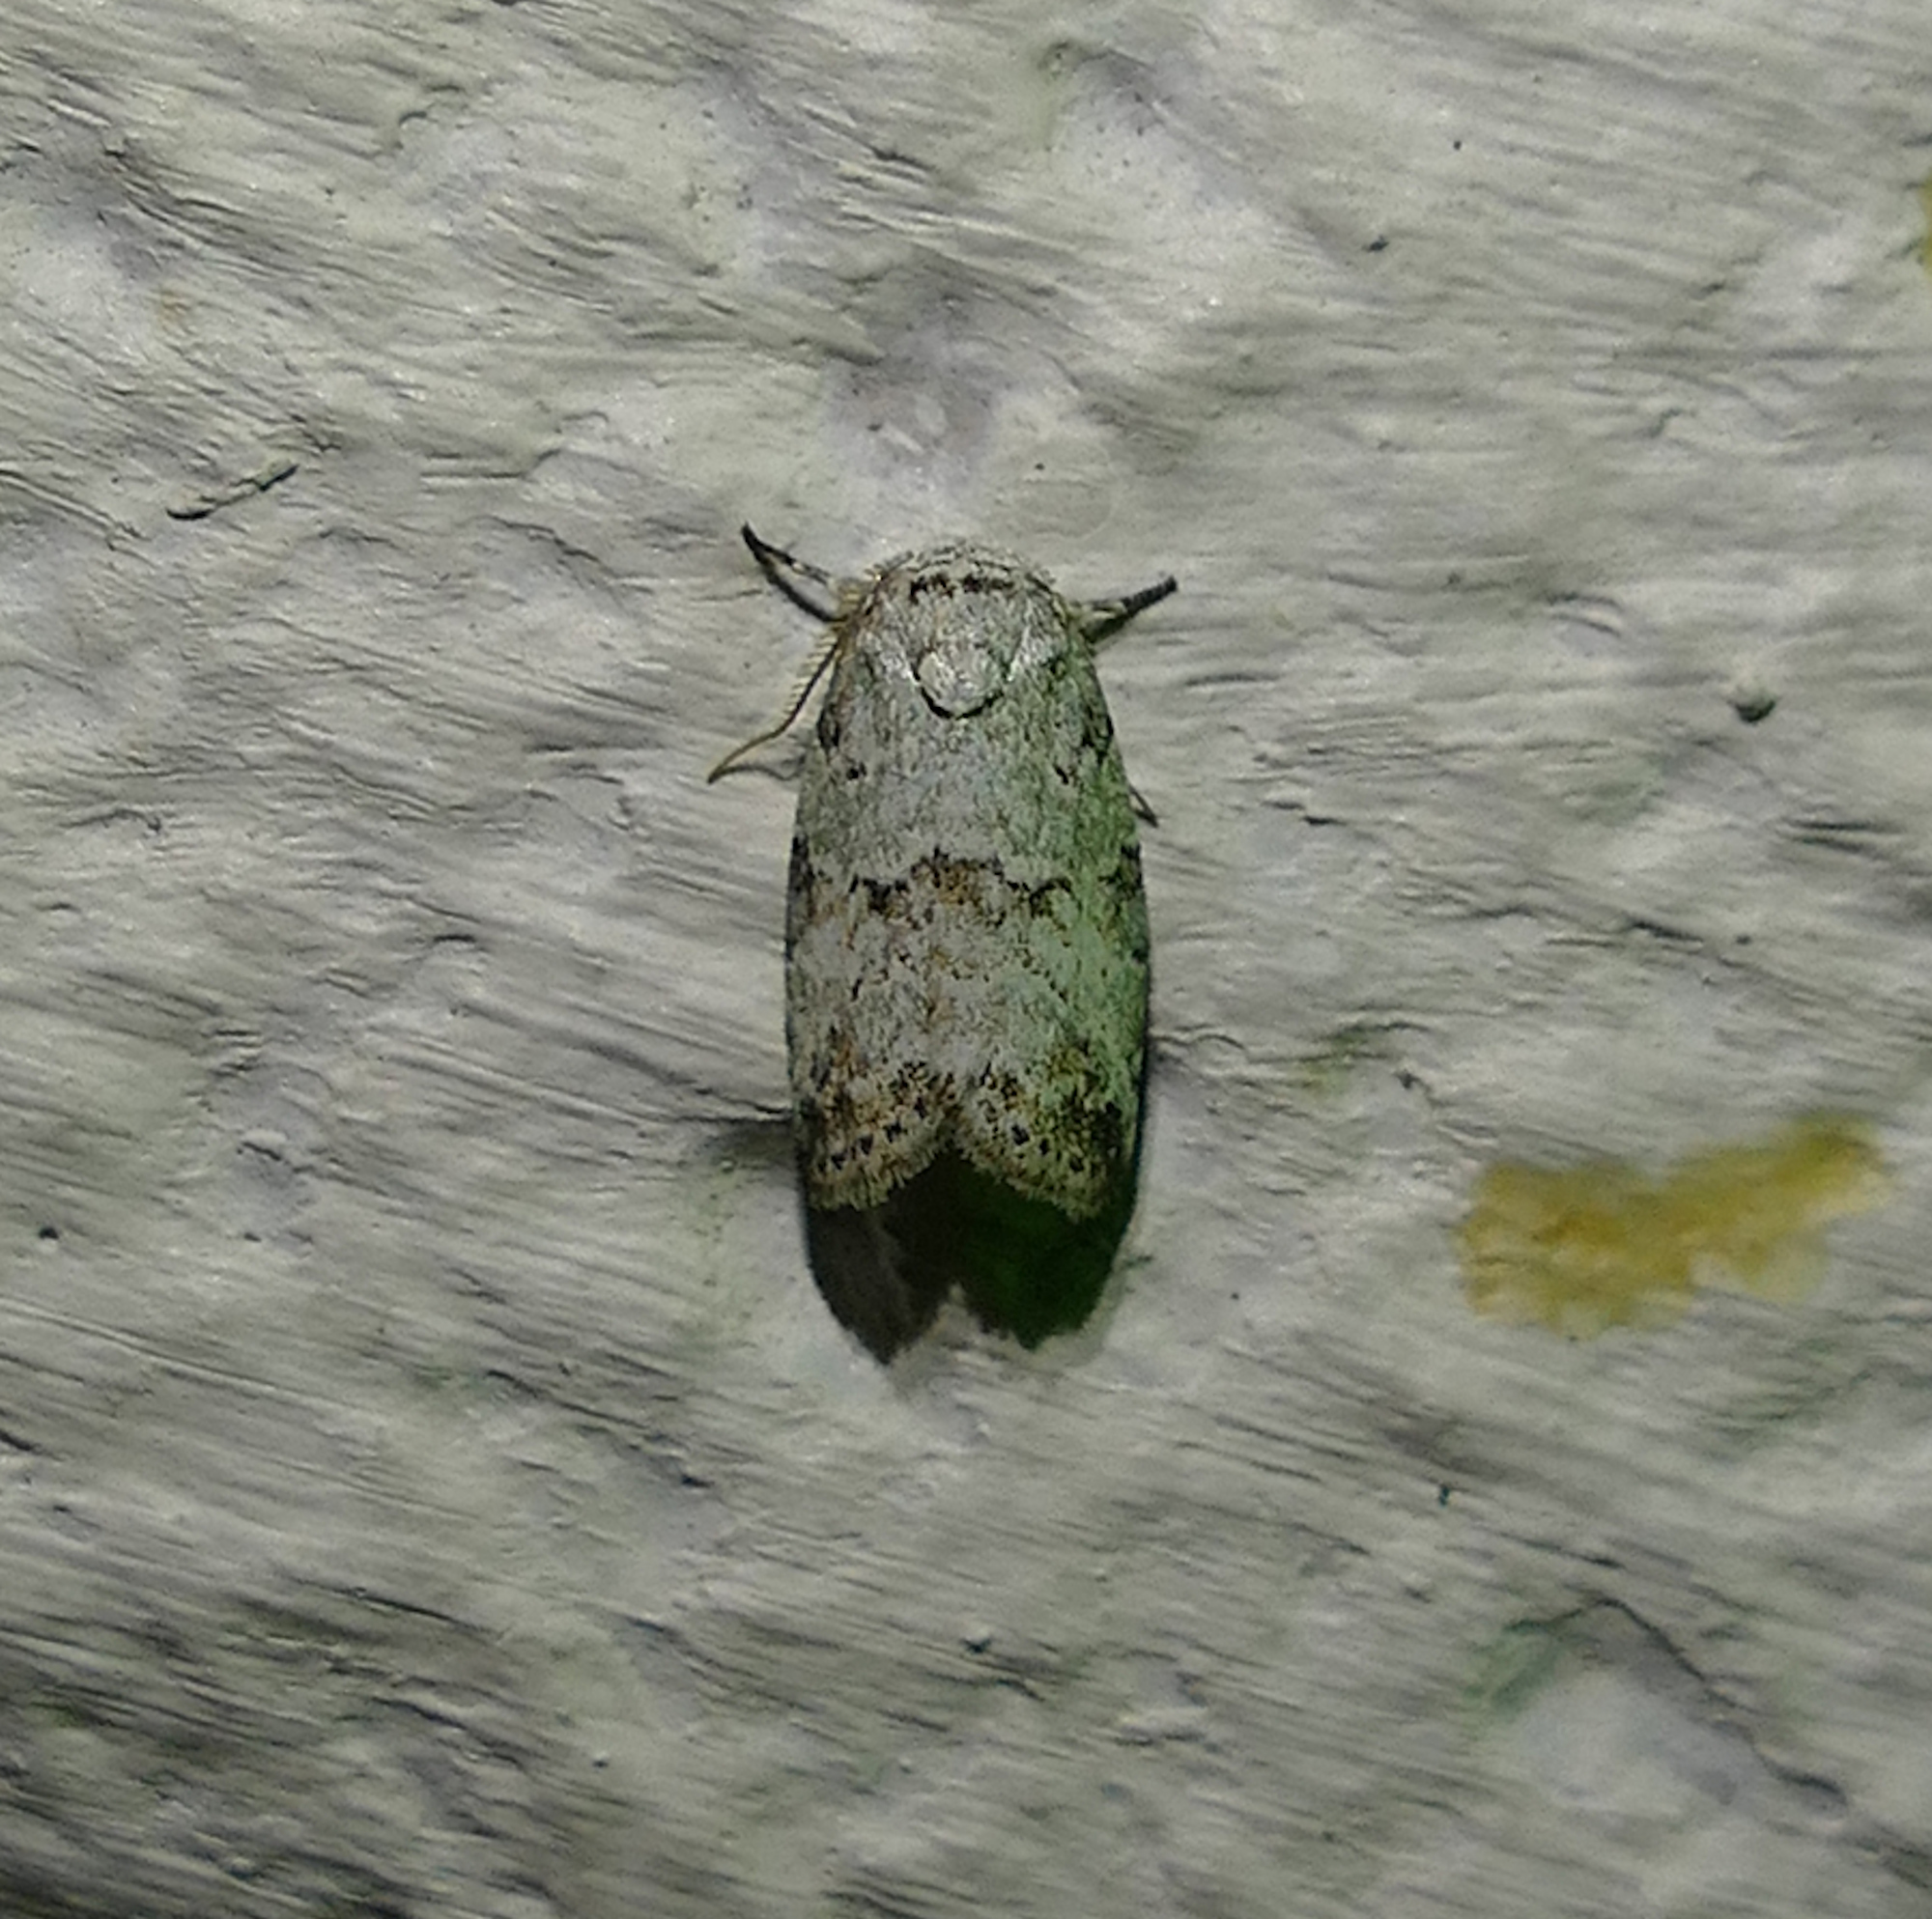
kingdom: Animalia
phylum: Arthropoda
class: Insecta
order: Lepidoptera
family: Nolidae
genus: Afrida
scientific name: Afrida ydatodes
